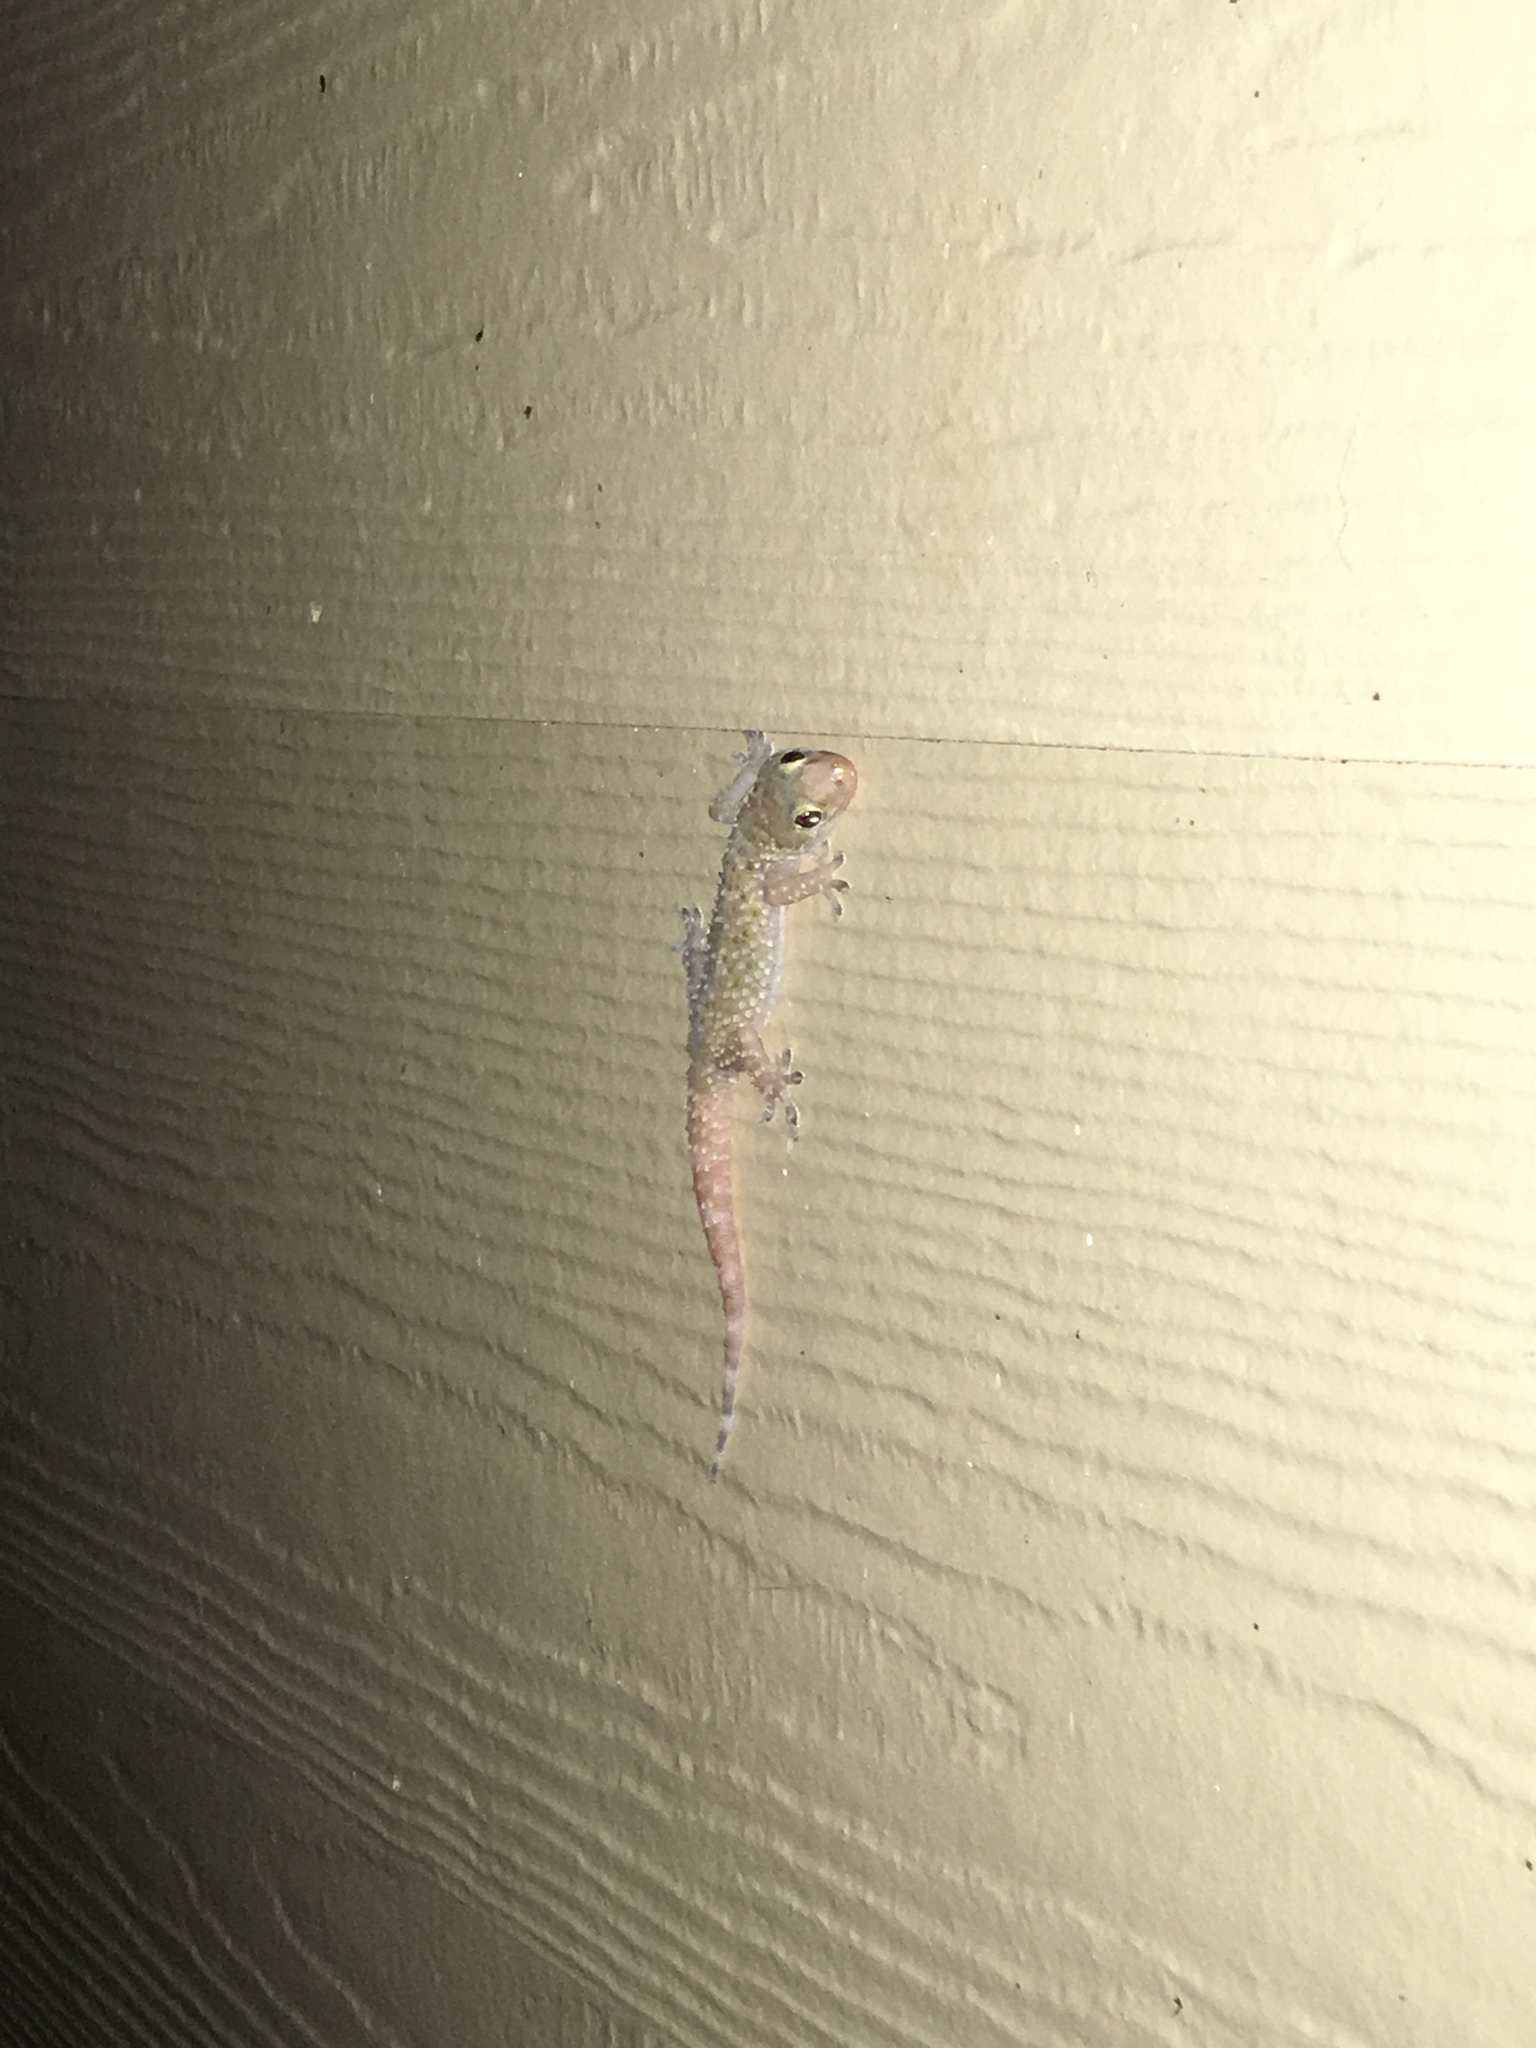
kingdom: Animalia
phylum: Chordata
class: Squamata
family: Gekkonidae
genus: Hemidactylus
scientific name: Hemidactylus turcicus
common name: Turkish gecko
